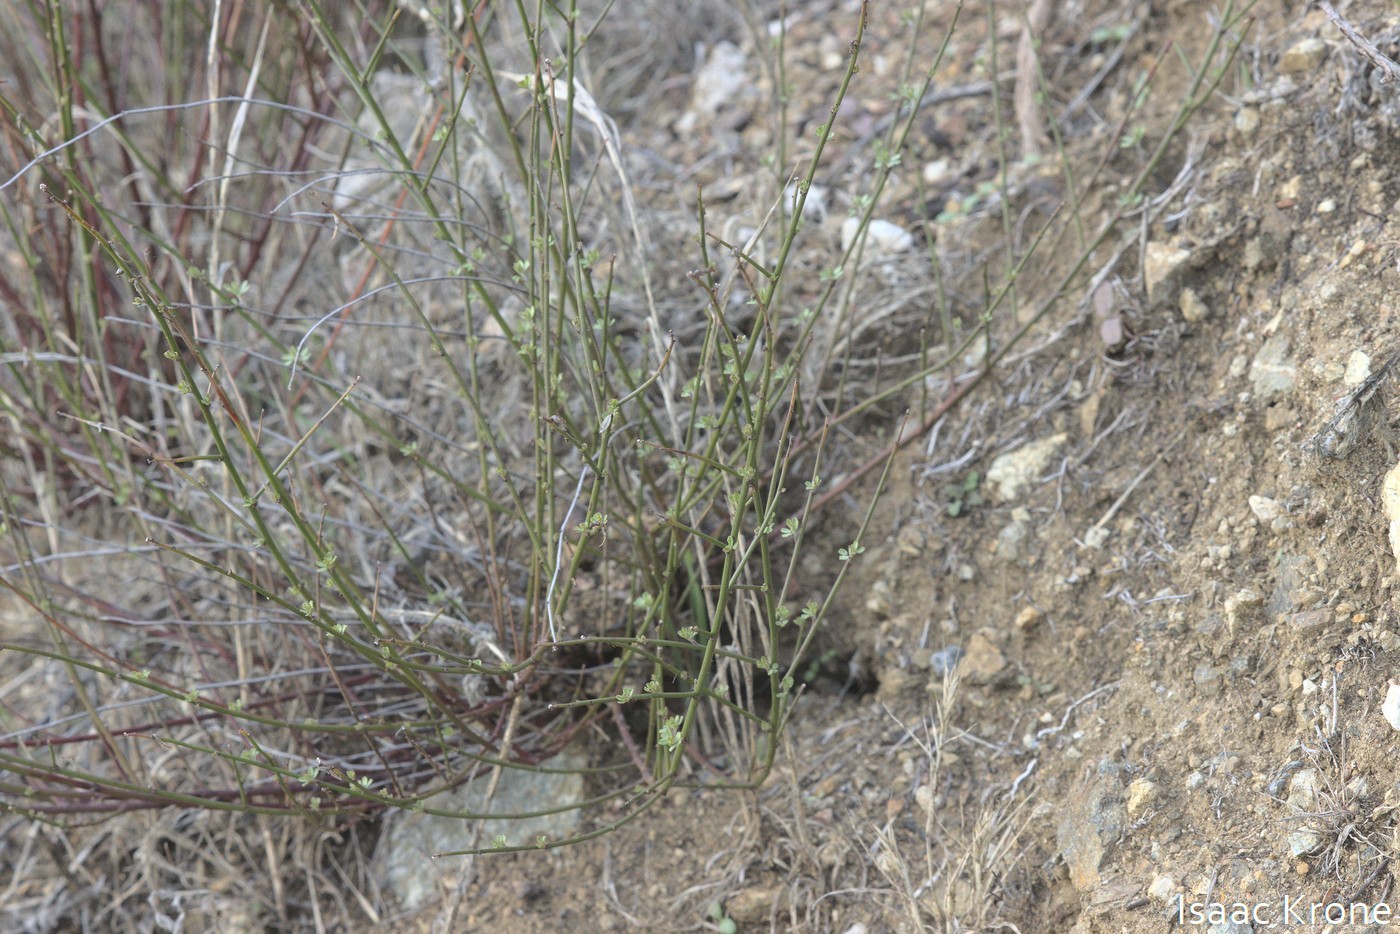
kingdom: Plantae
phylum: Tracheophyta
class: Magnoliopsida
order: Fabales
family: Fabaceae
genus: Acmispon
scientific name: Acmispon glaber
